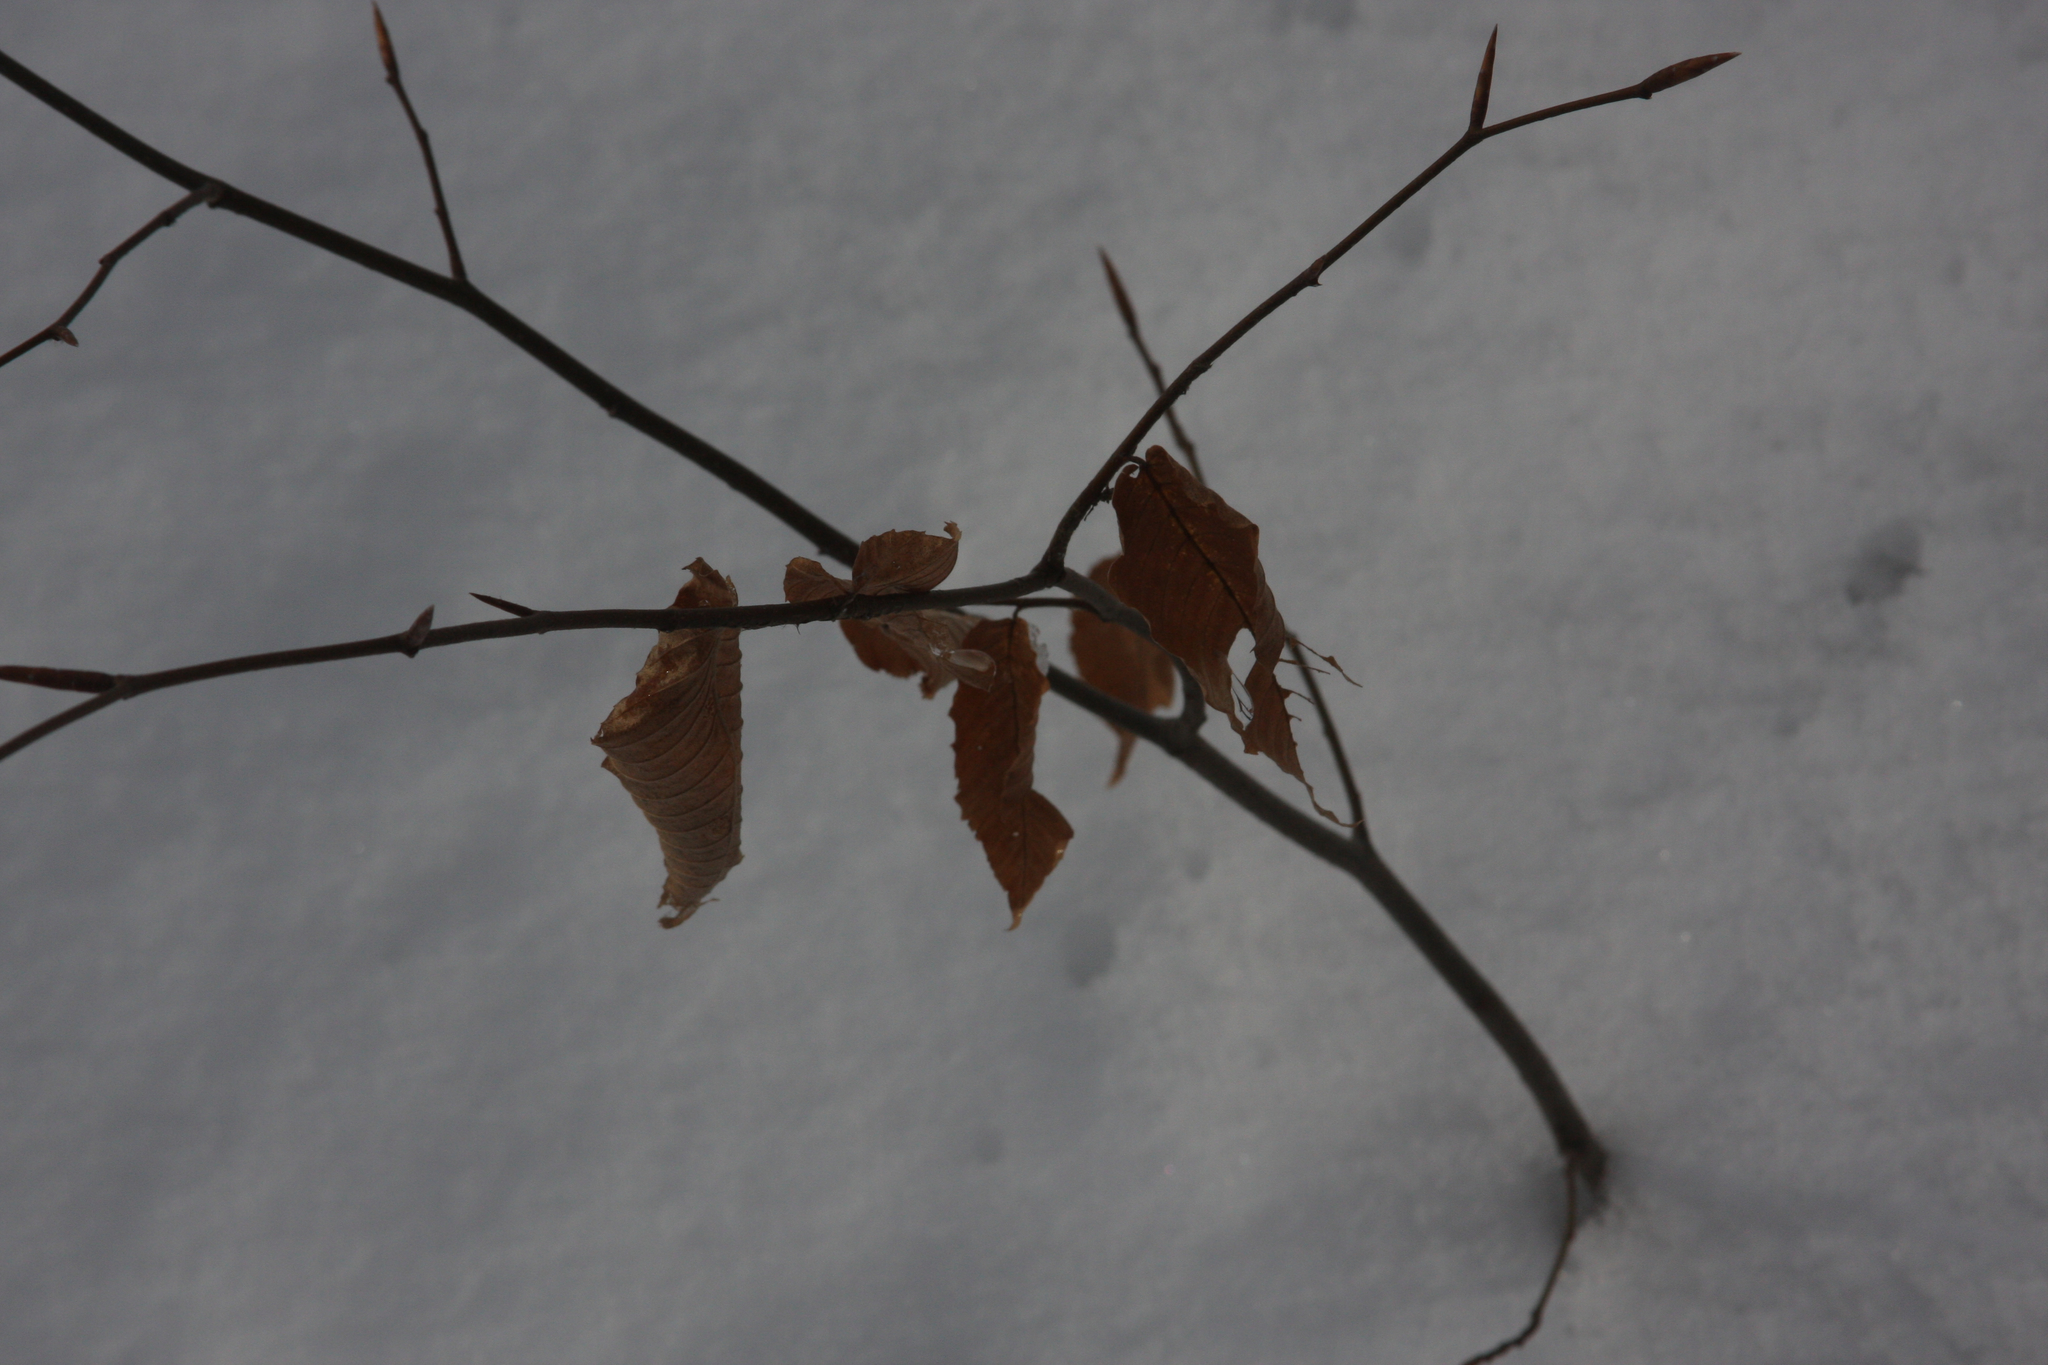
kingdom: Plantae
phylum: Tracheophyta
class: Magnoliopsida
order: Fagales
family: Fagaceae
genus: Fagus
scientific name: Fagus grandifolia
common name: American beech
